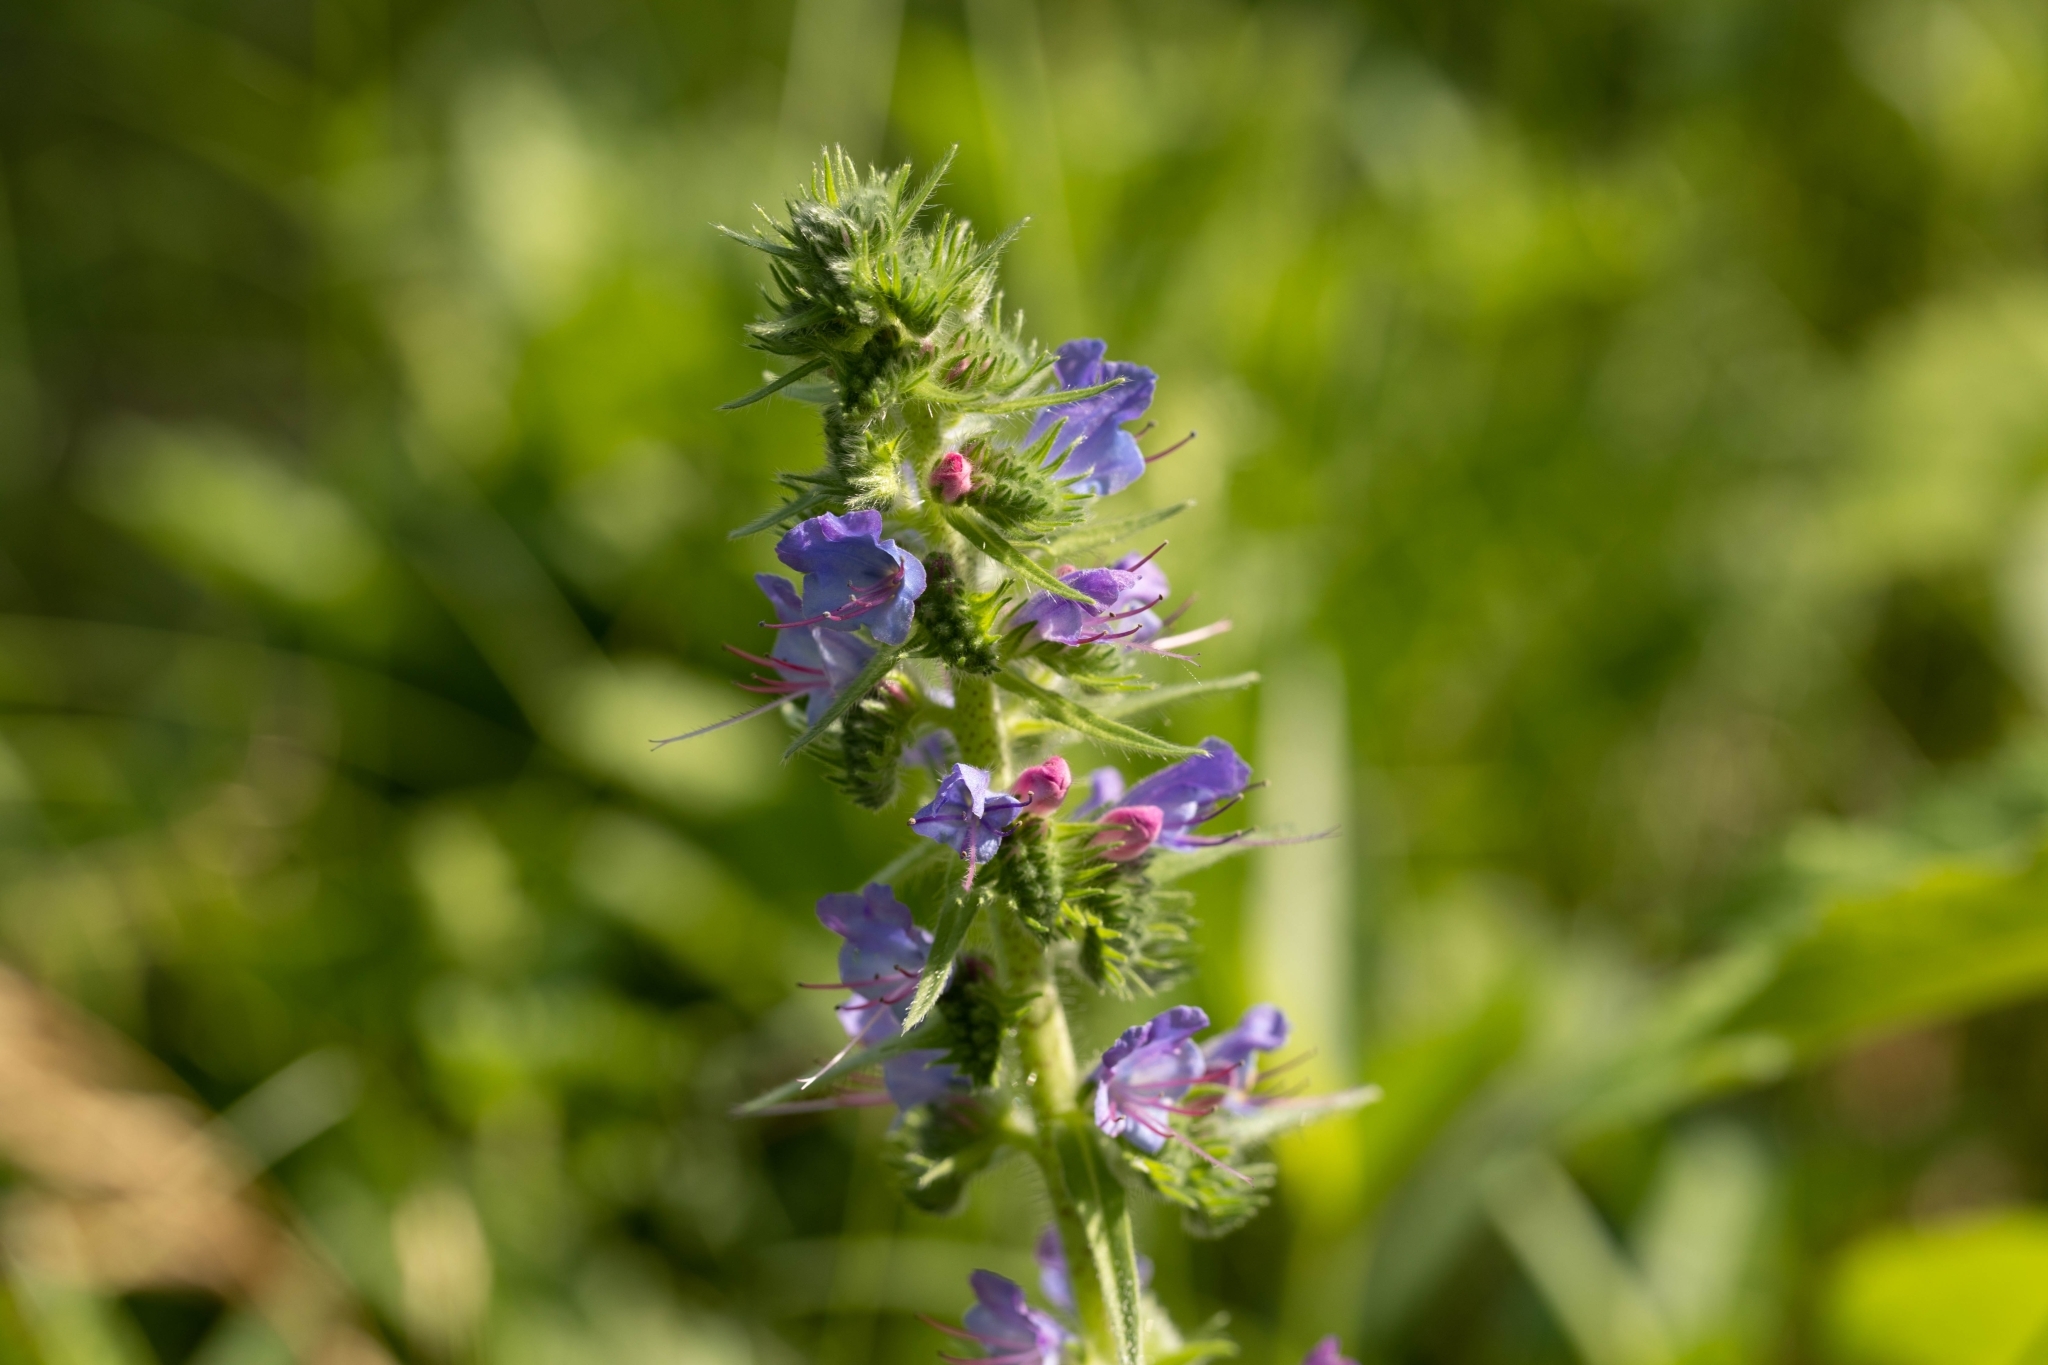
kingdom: Plantae
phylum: Tracheophyta
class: Magnoliopsida
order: Boraginales
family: Boraginaceae
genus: Echium
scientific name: Echium vulgare
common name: Common viper's bugloss
